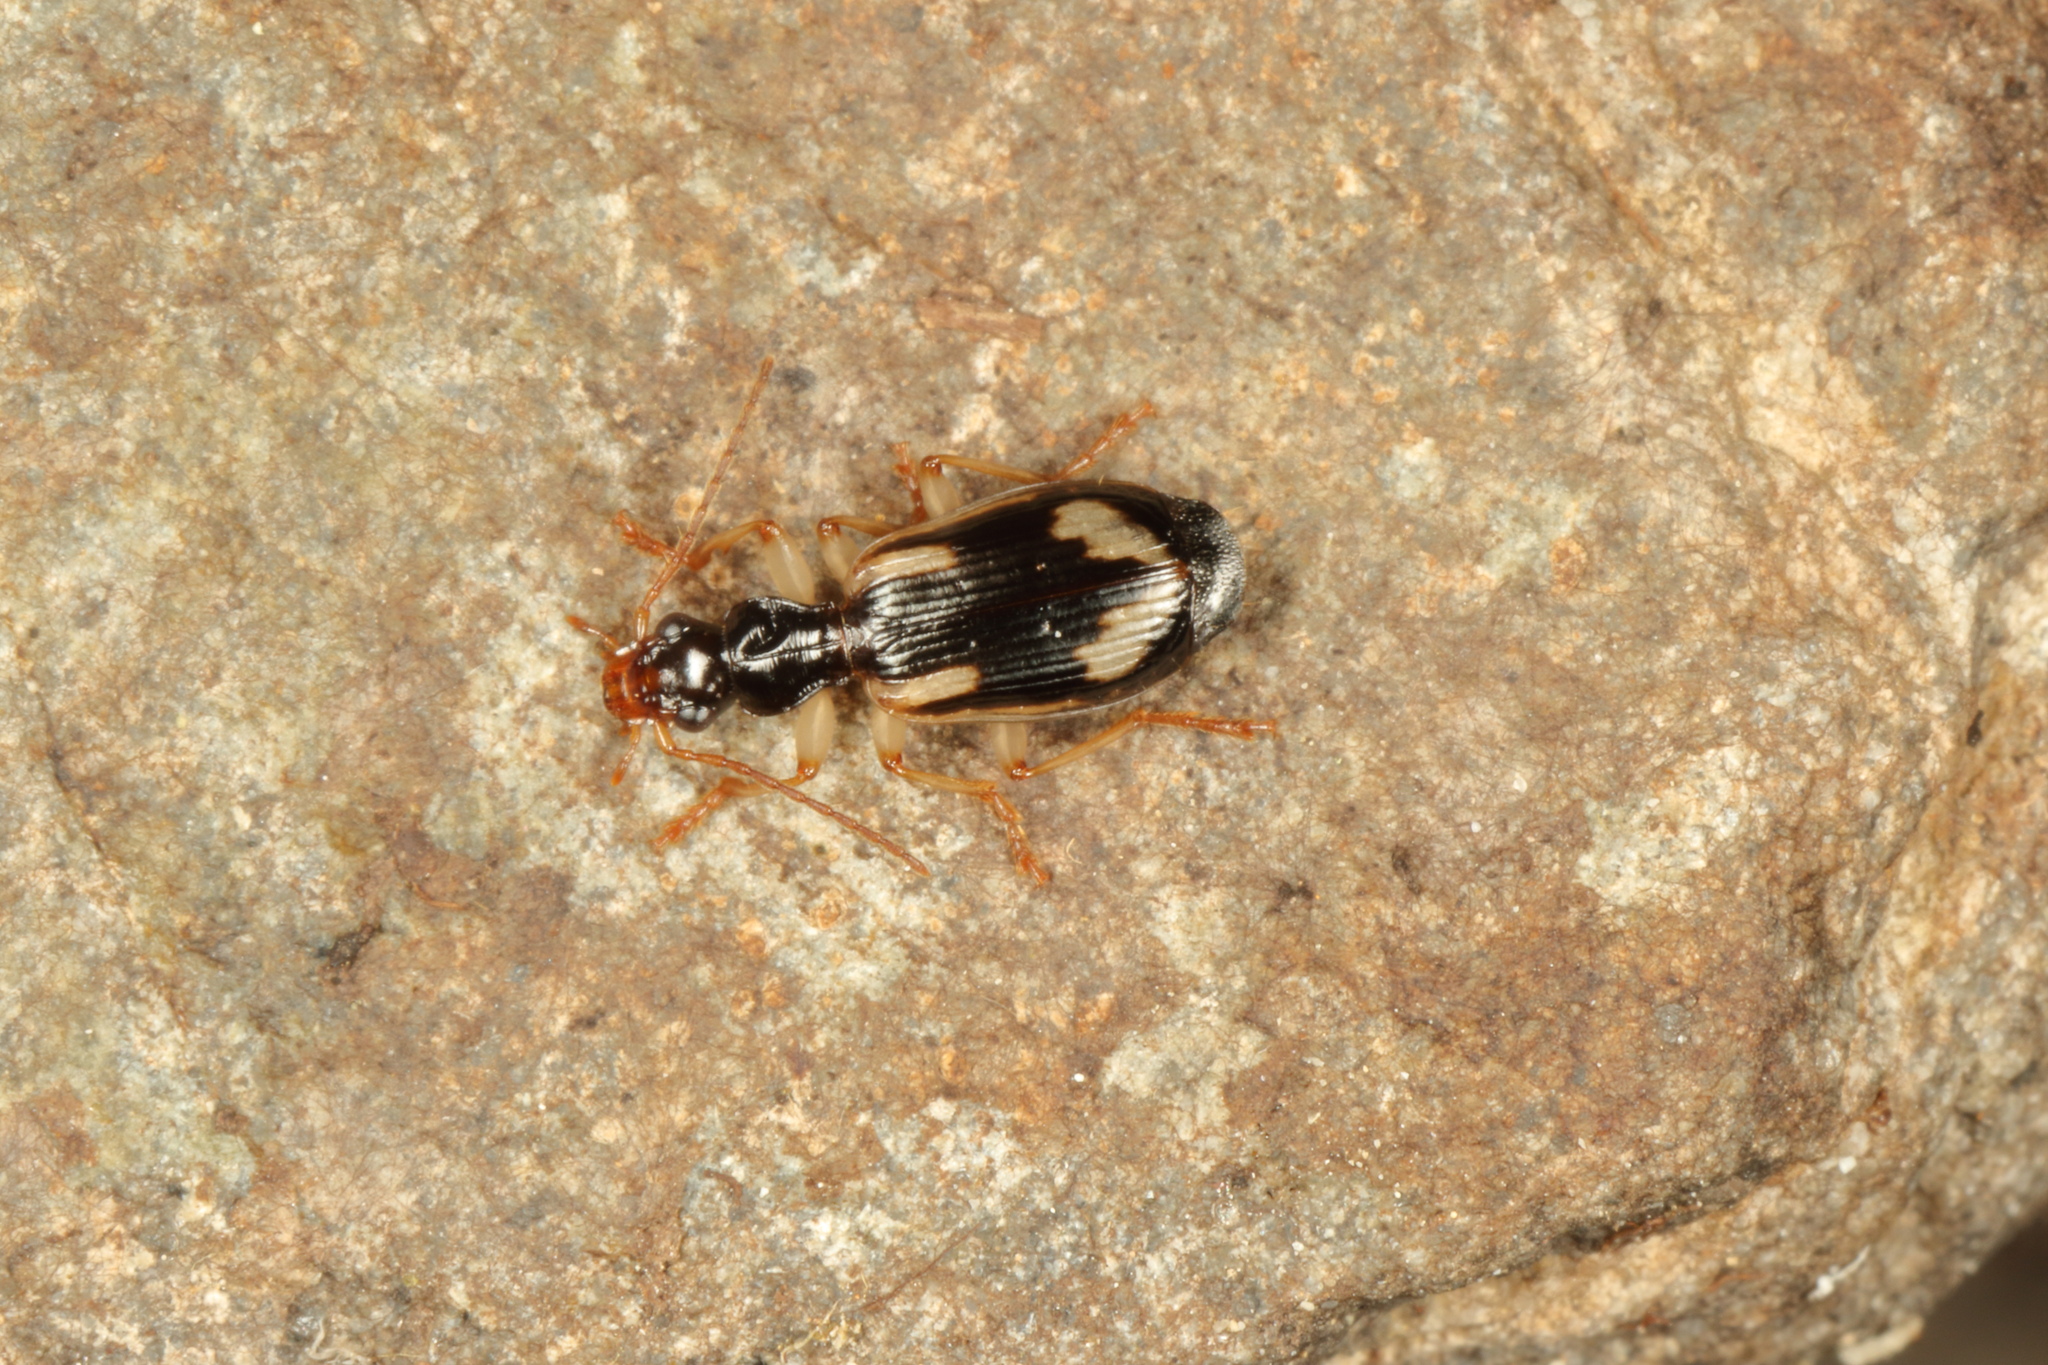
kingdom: Animalia
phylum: Arthropoda
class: Insecta
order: Coleoptera
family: Carabidae
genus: Demetrida
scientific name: Demetrida nasuta
